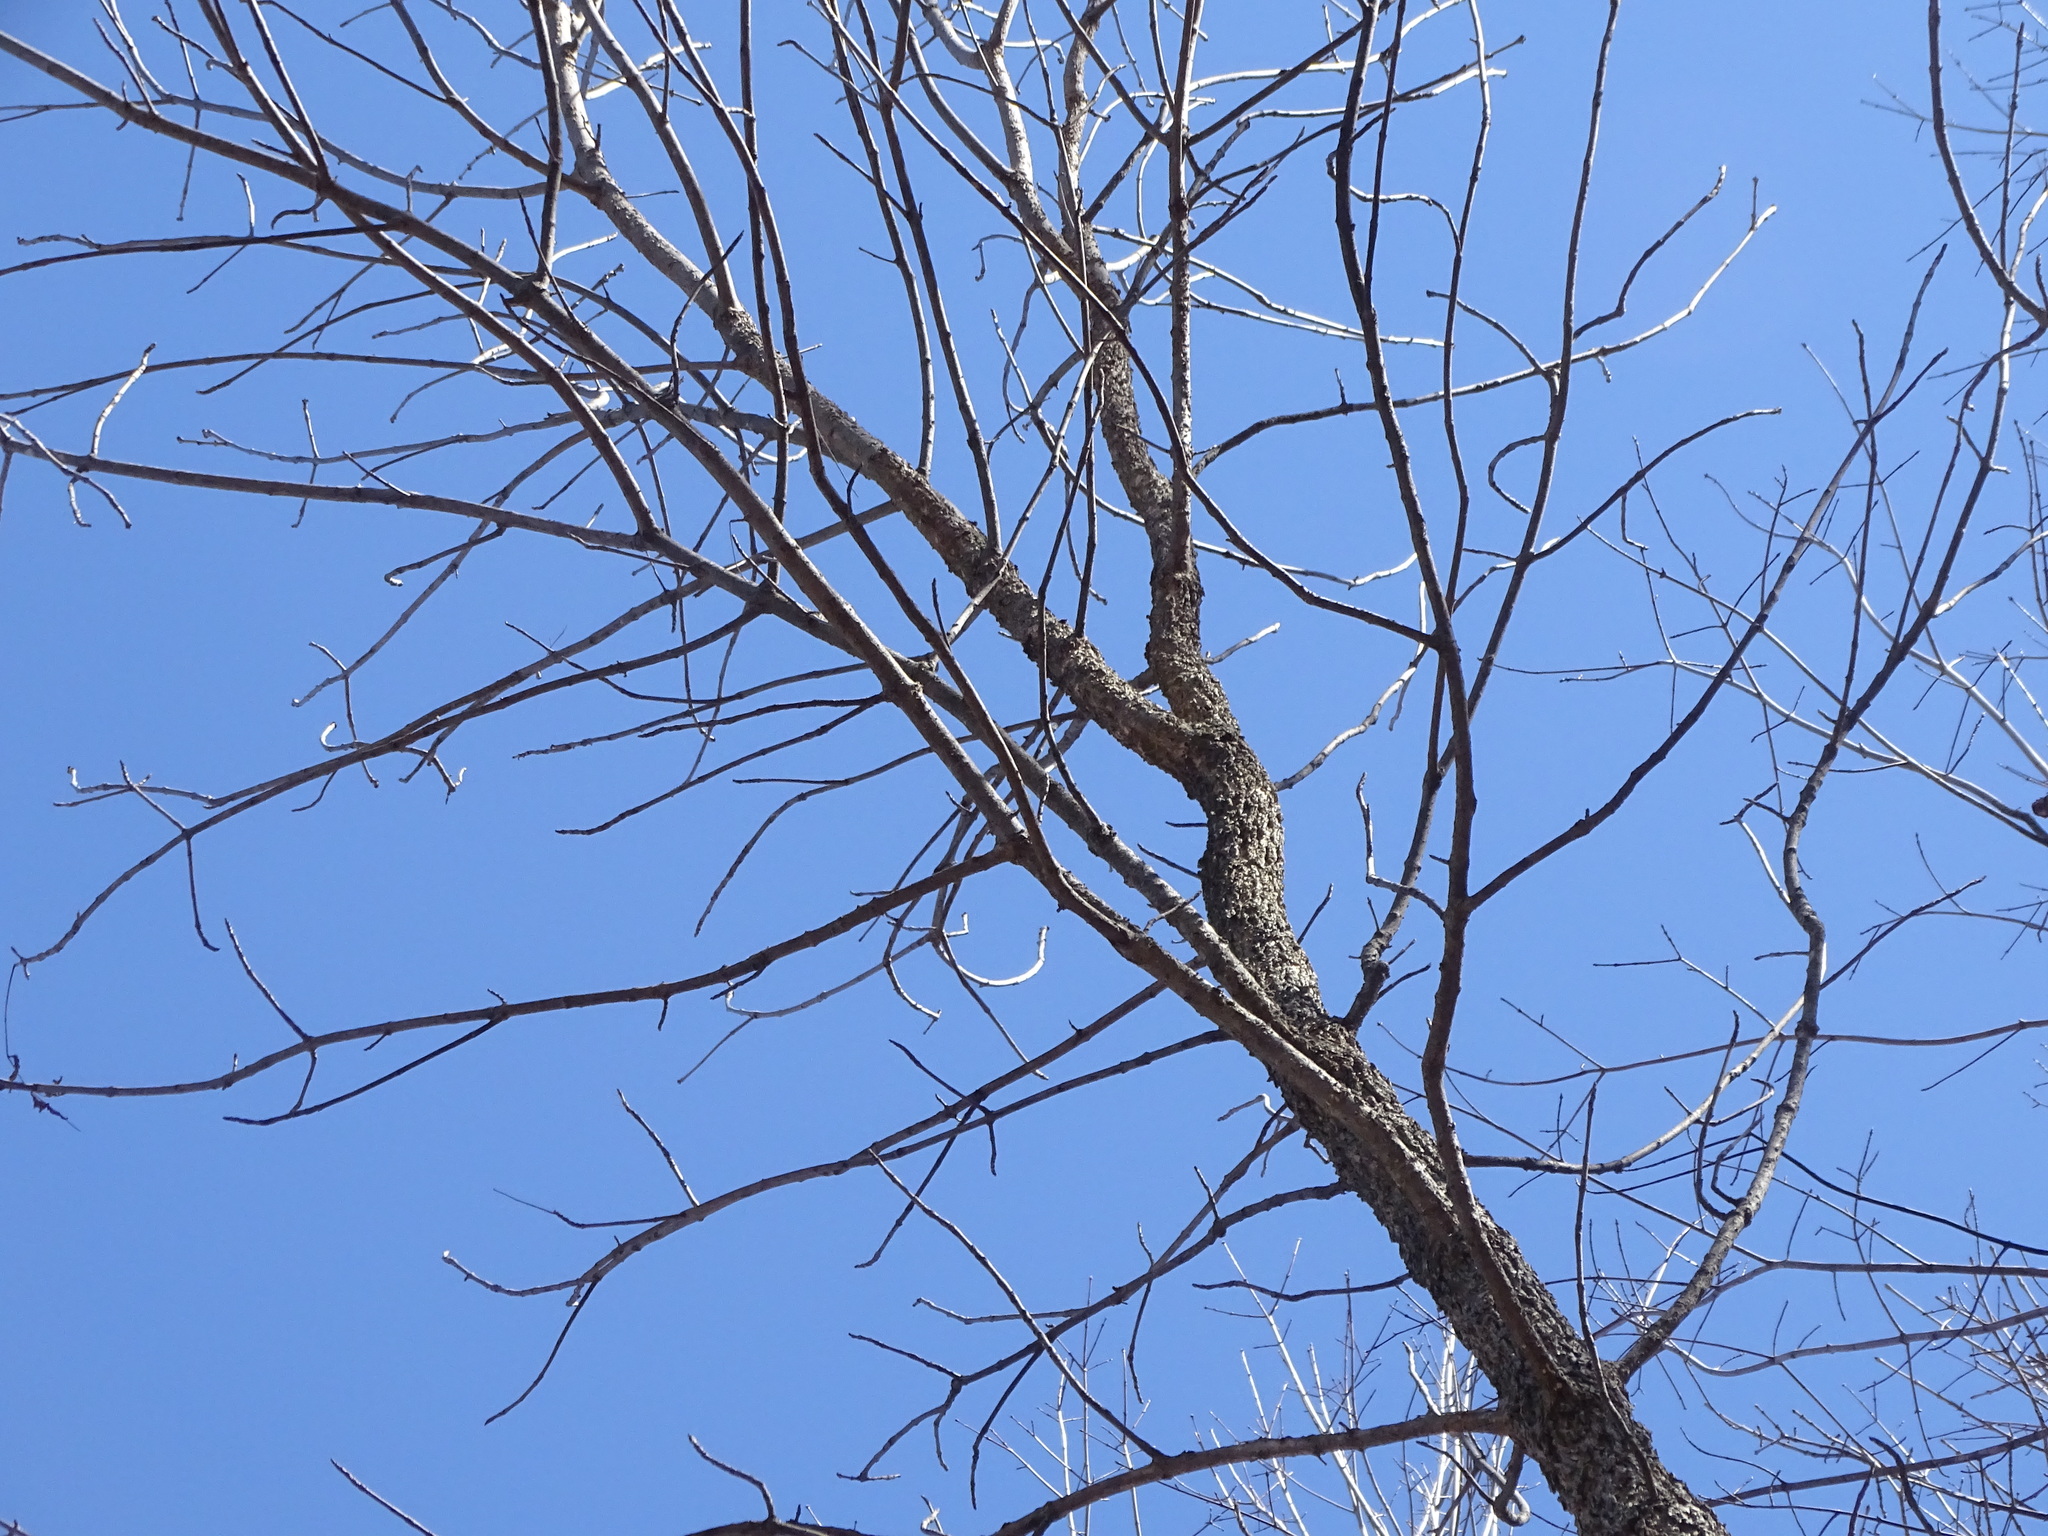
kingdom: Plantae
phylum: Tracheophyta
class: Magnoliopsida
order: Lamiales
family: Oleaceae
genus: Fraxinus
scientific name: Fraxinus nigra
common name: Black ash
